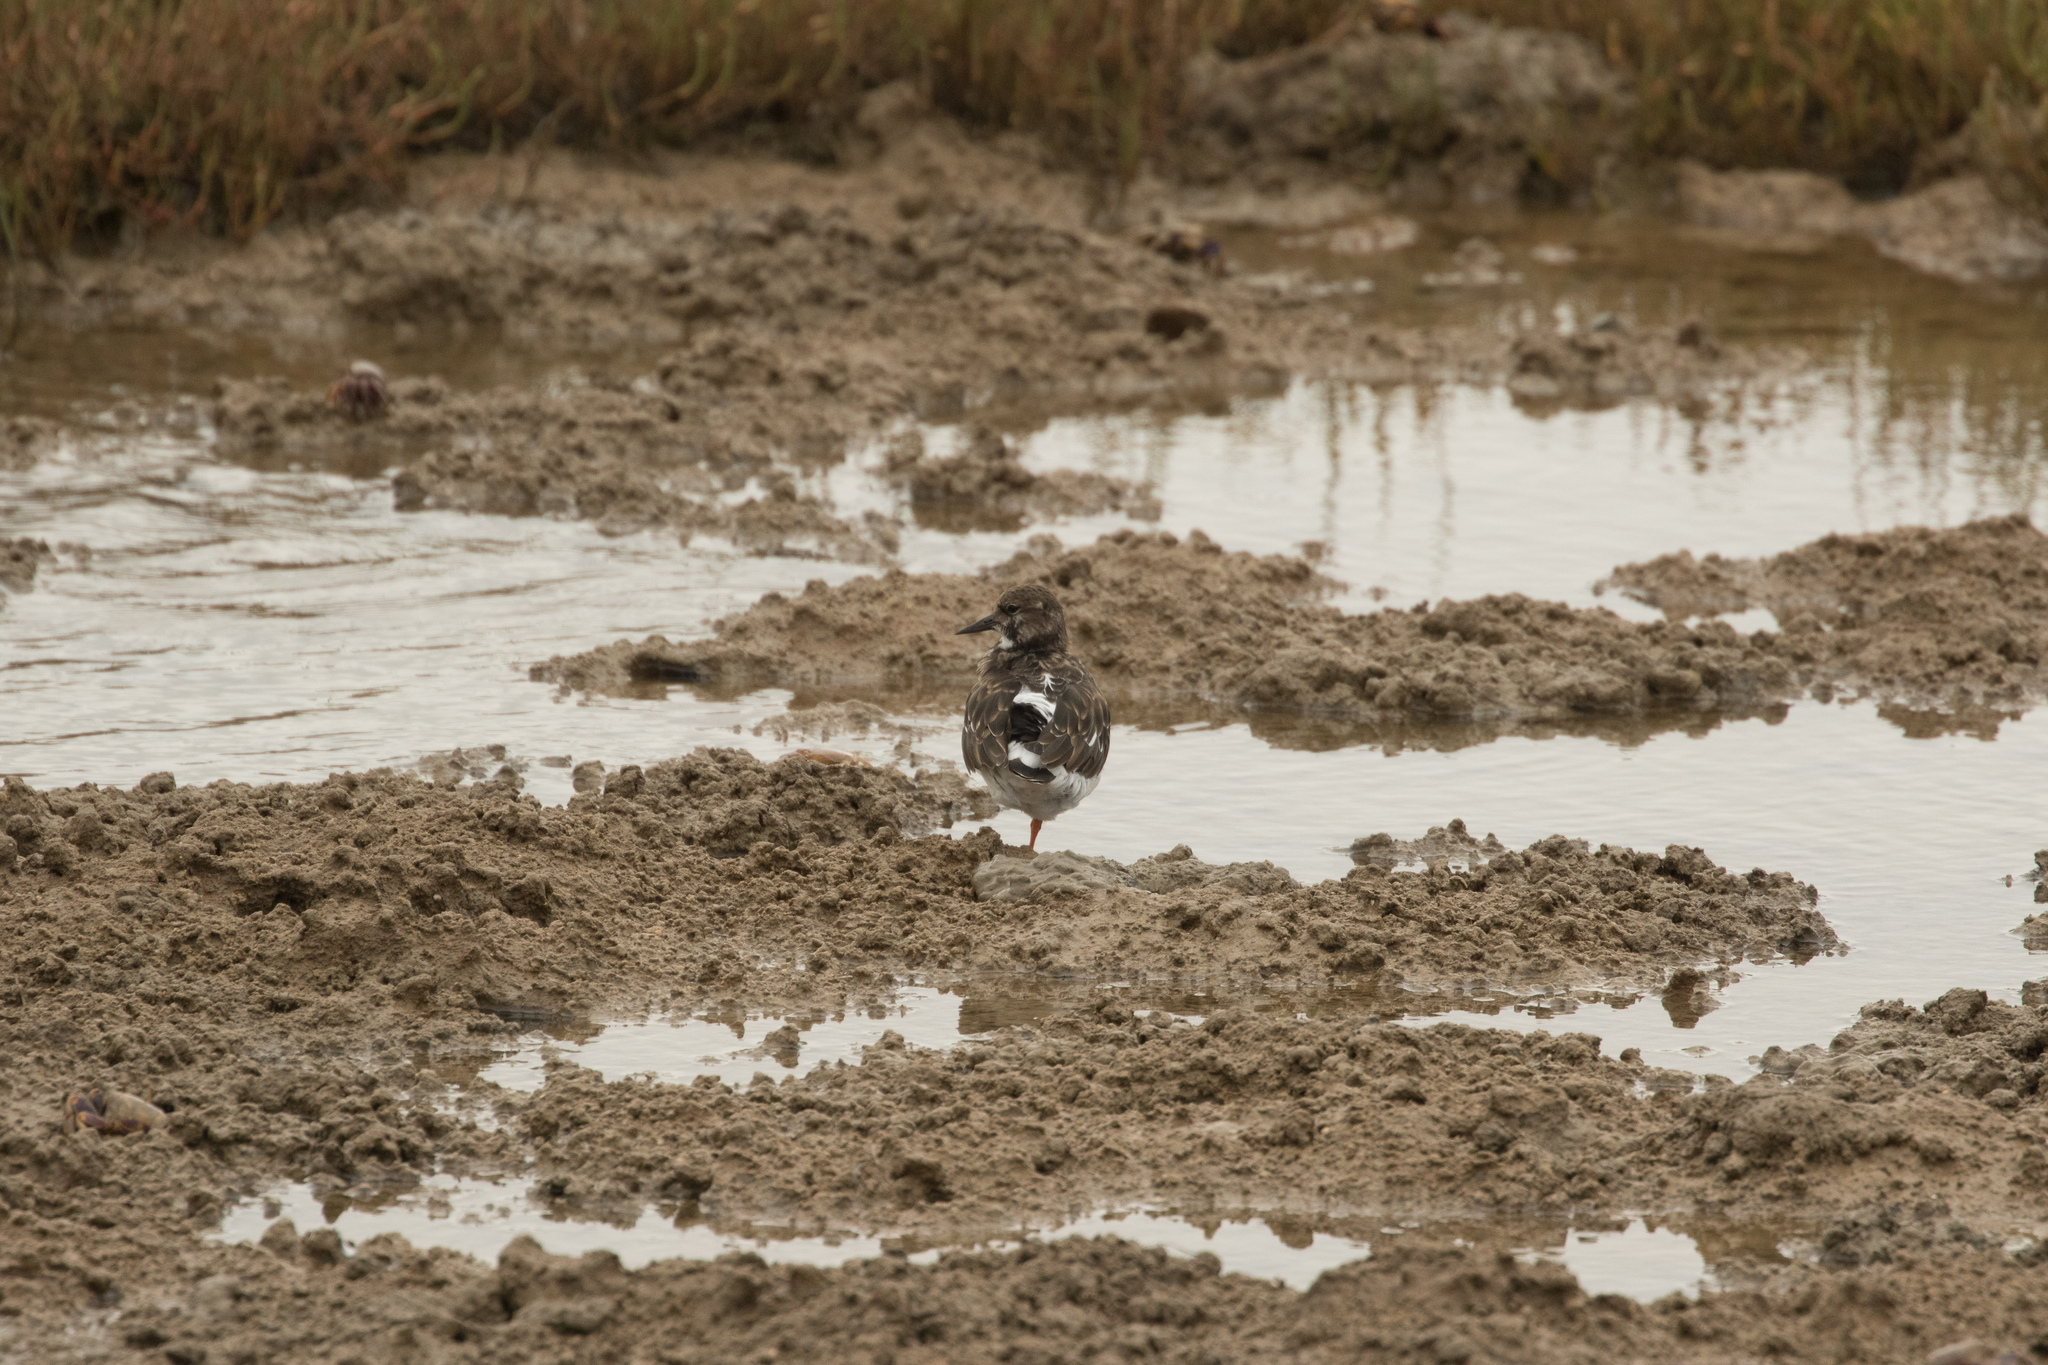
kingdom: Animalia
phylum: Chordata
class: Aves
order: Charadriiformes
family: Scolopacidae
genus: Arenaria
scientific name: Arenaria interpres
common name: Ruddy turnstone
